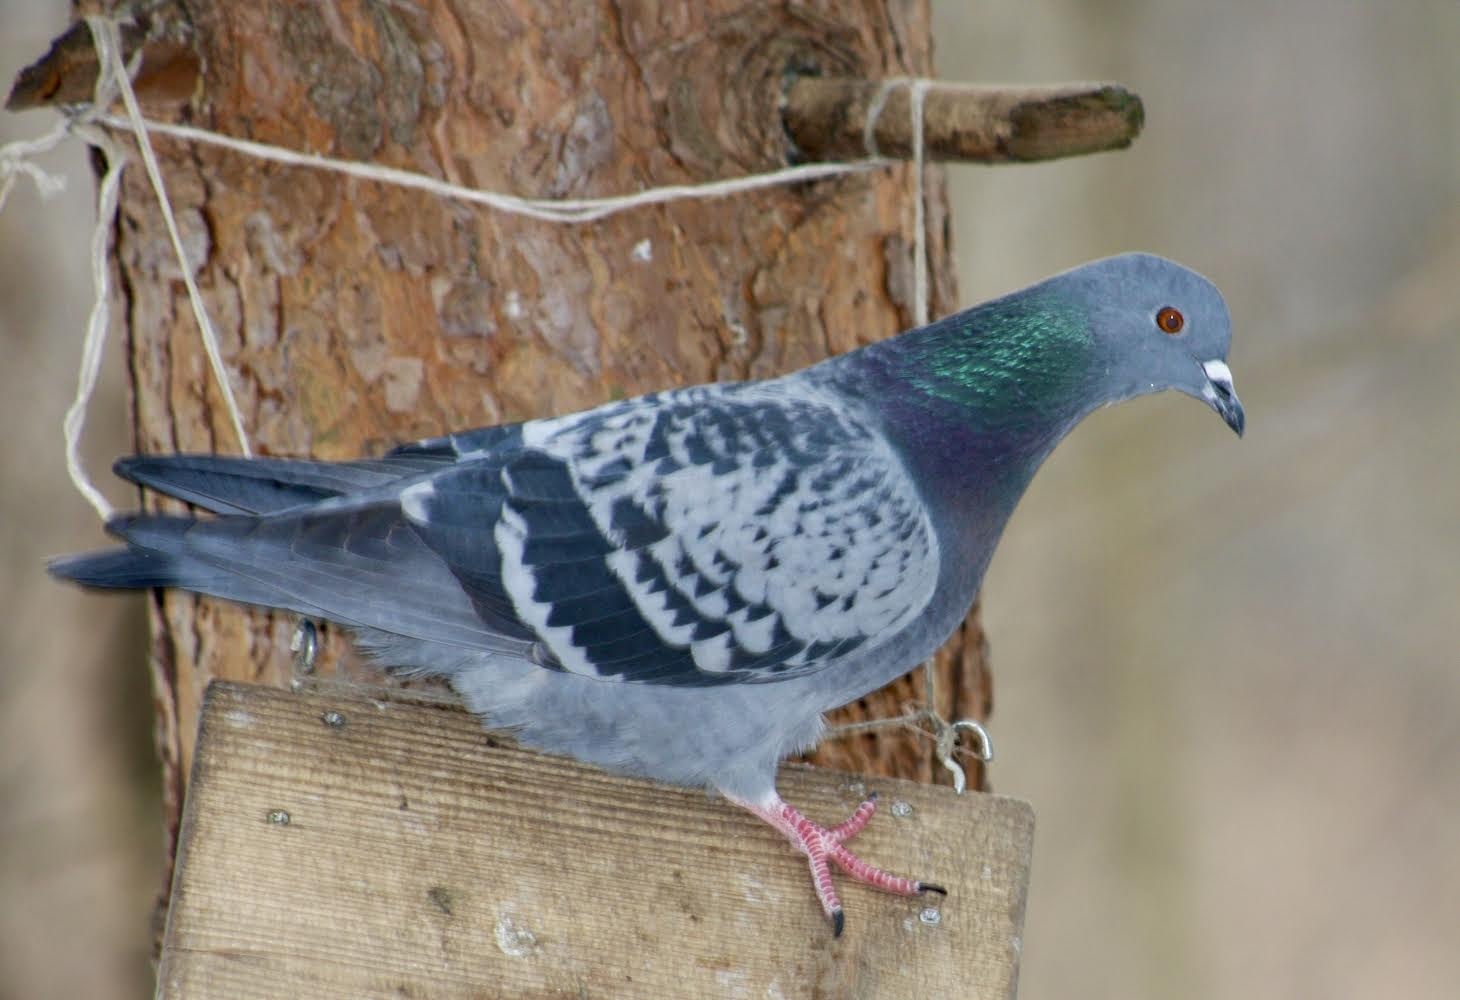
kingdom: Animalia
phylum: Chordata
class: Aves
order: Columbiformes
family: Columbidae
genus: Columba
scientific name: Columba livia
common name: Rock pigeon
